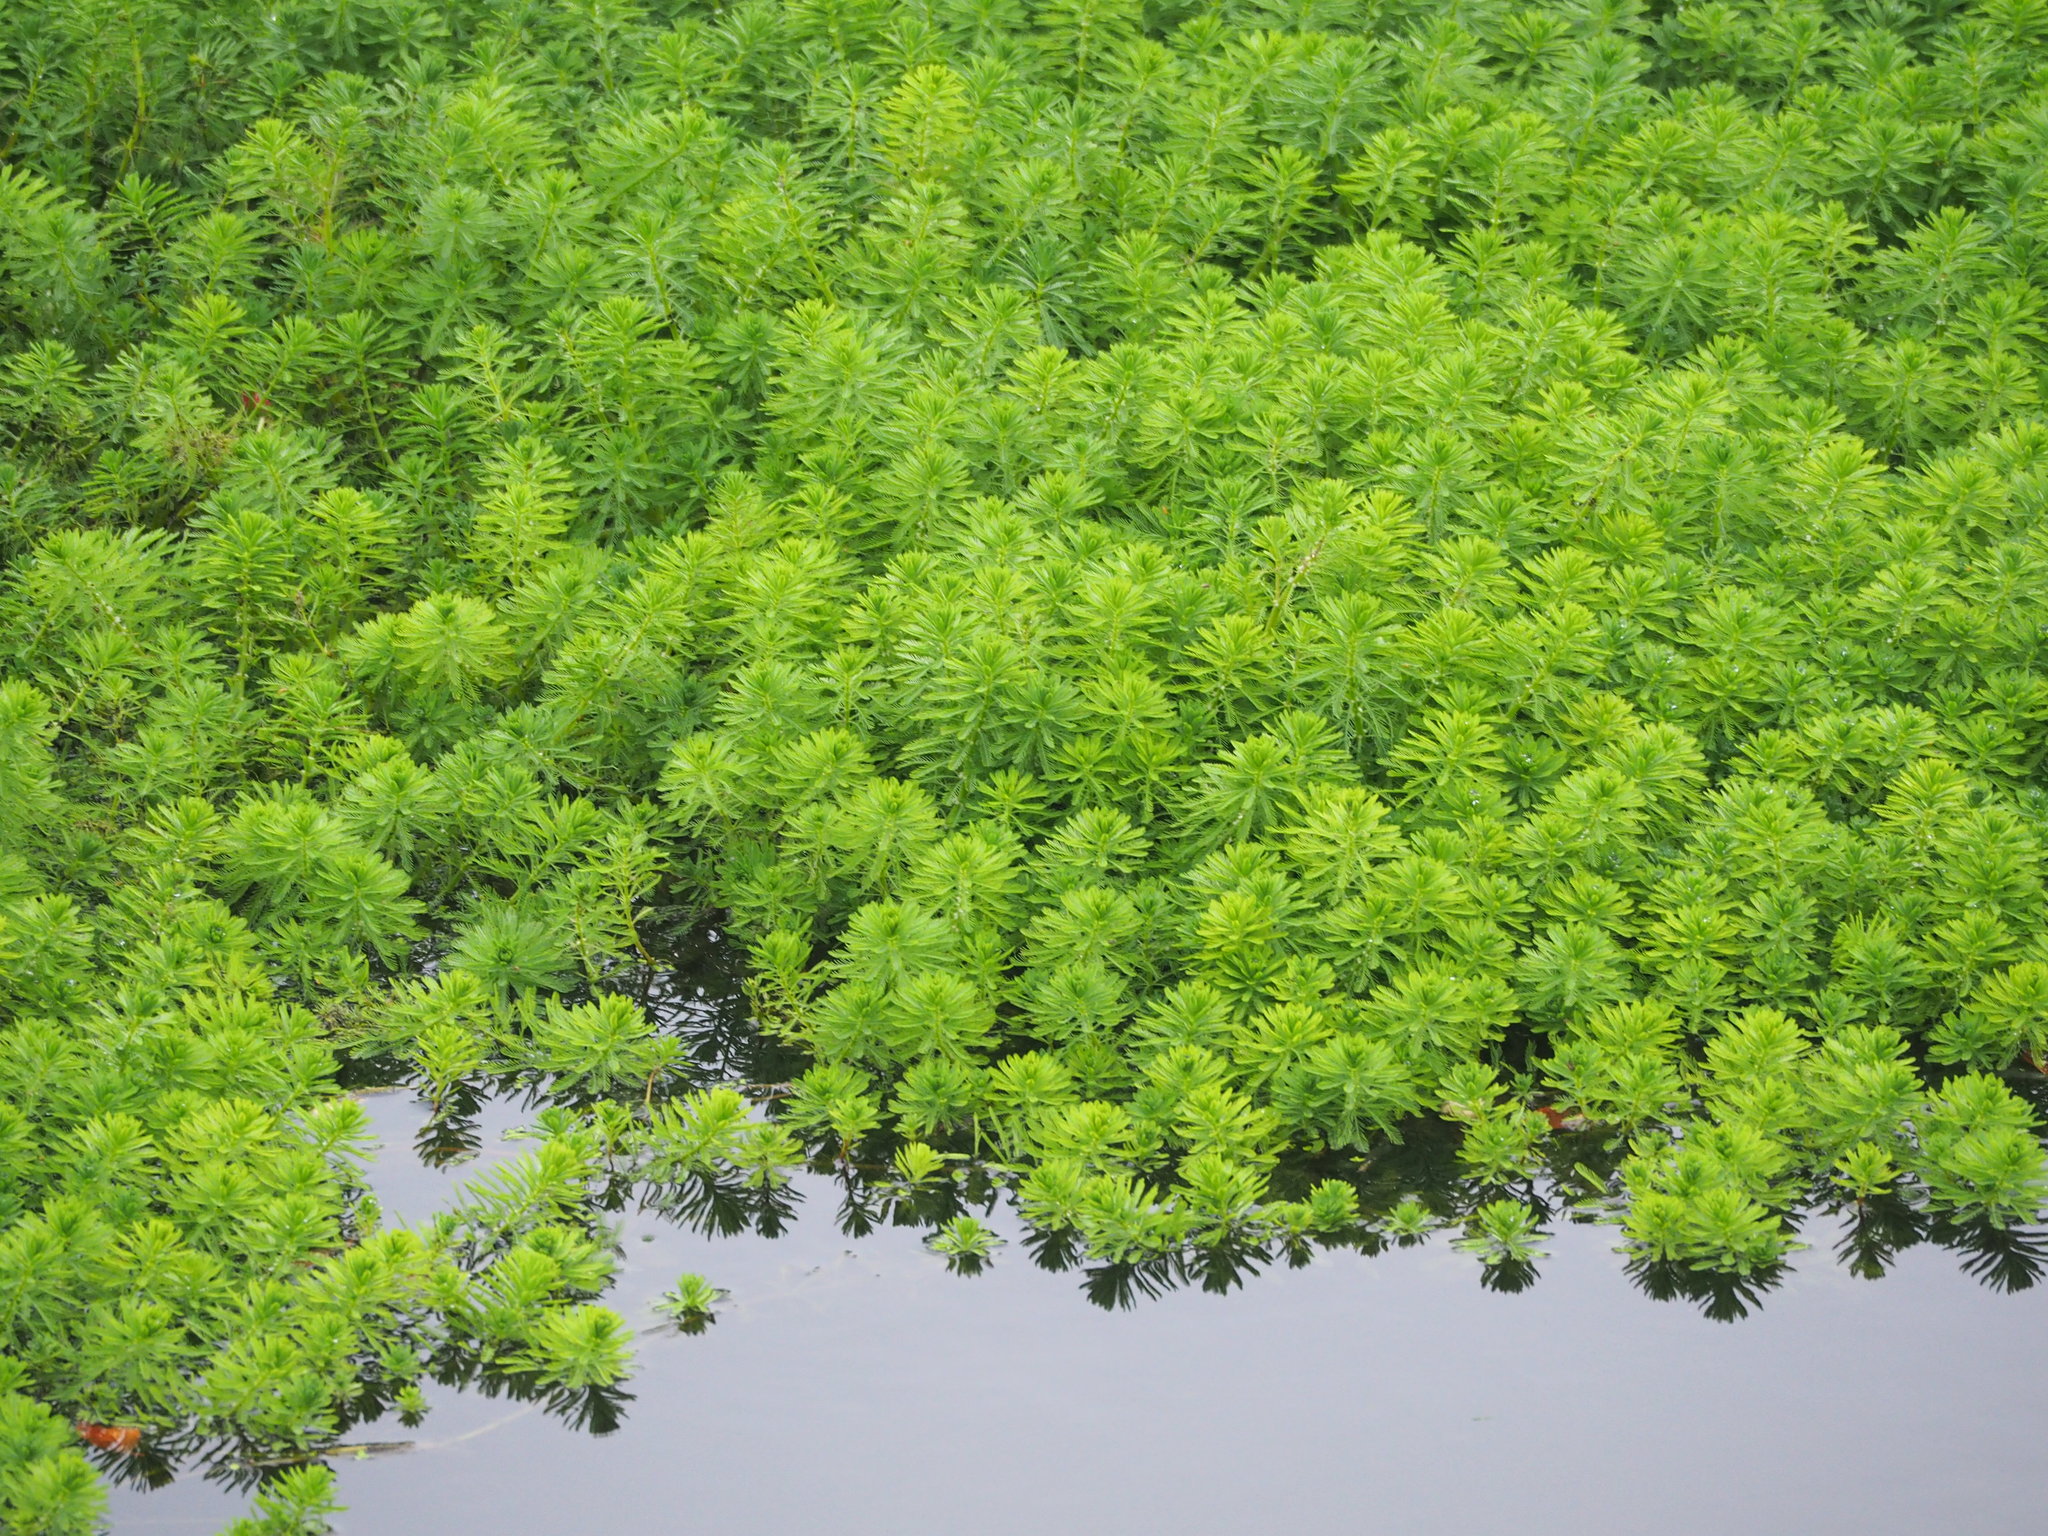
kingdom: Plantae
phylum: Tracheophyta
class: Magnoliopsida
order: Saxifragales
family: Haloragaceae
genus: Myriophyllum
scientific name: Myriophyllum aquaticum
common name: Parrot's feather
